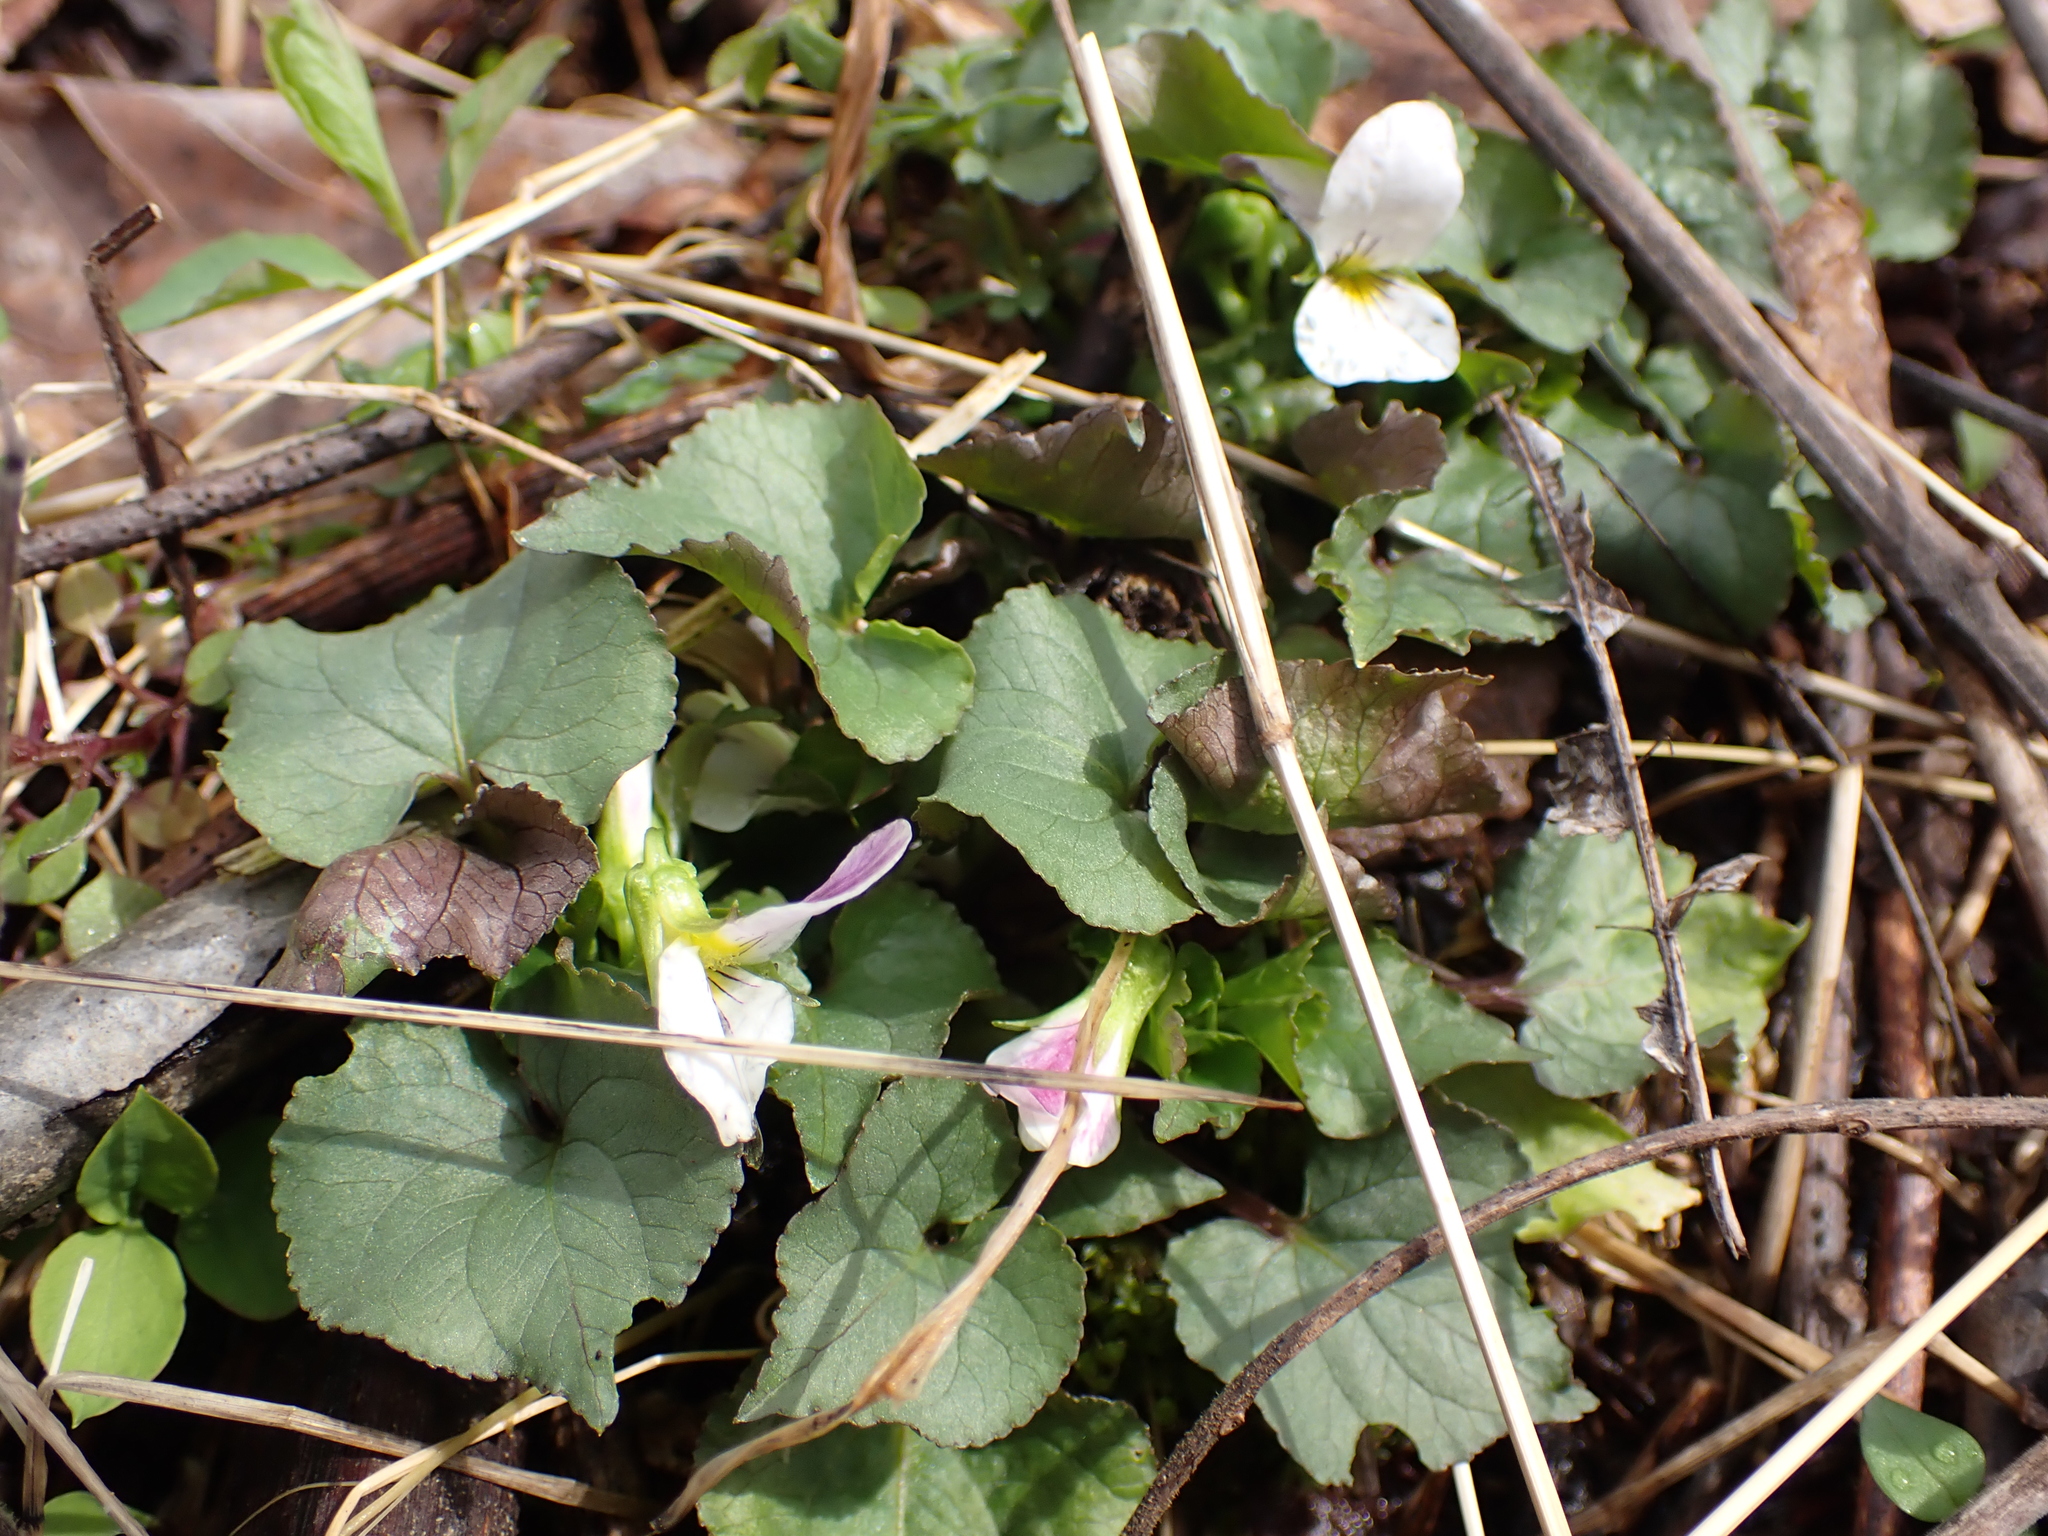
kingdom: Plantae
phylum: Tracheophyta
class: Magnoliopsida
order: Malpighiales
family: Violaceae
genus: Viola
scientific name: Viola canadensis
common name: Canada violet
